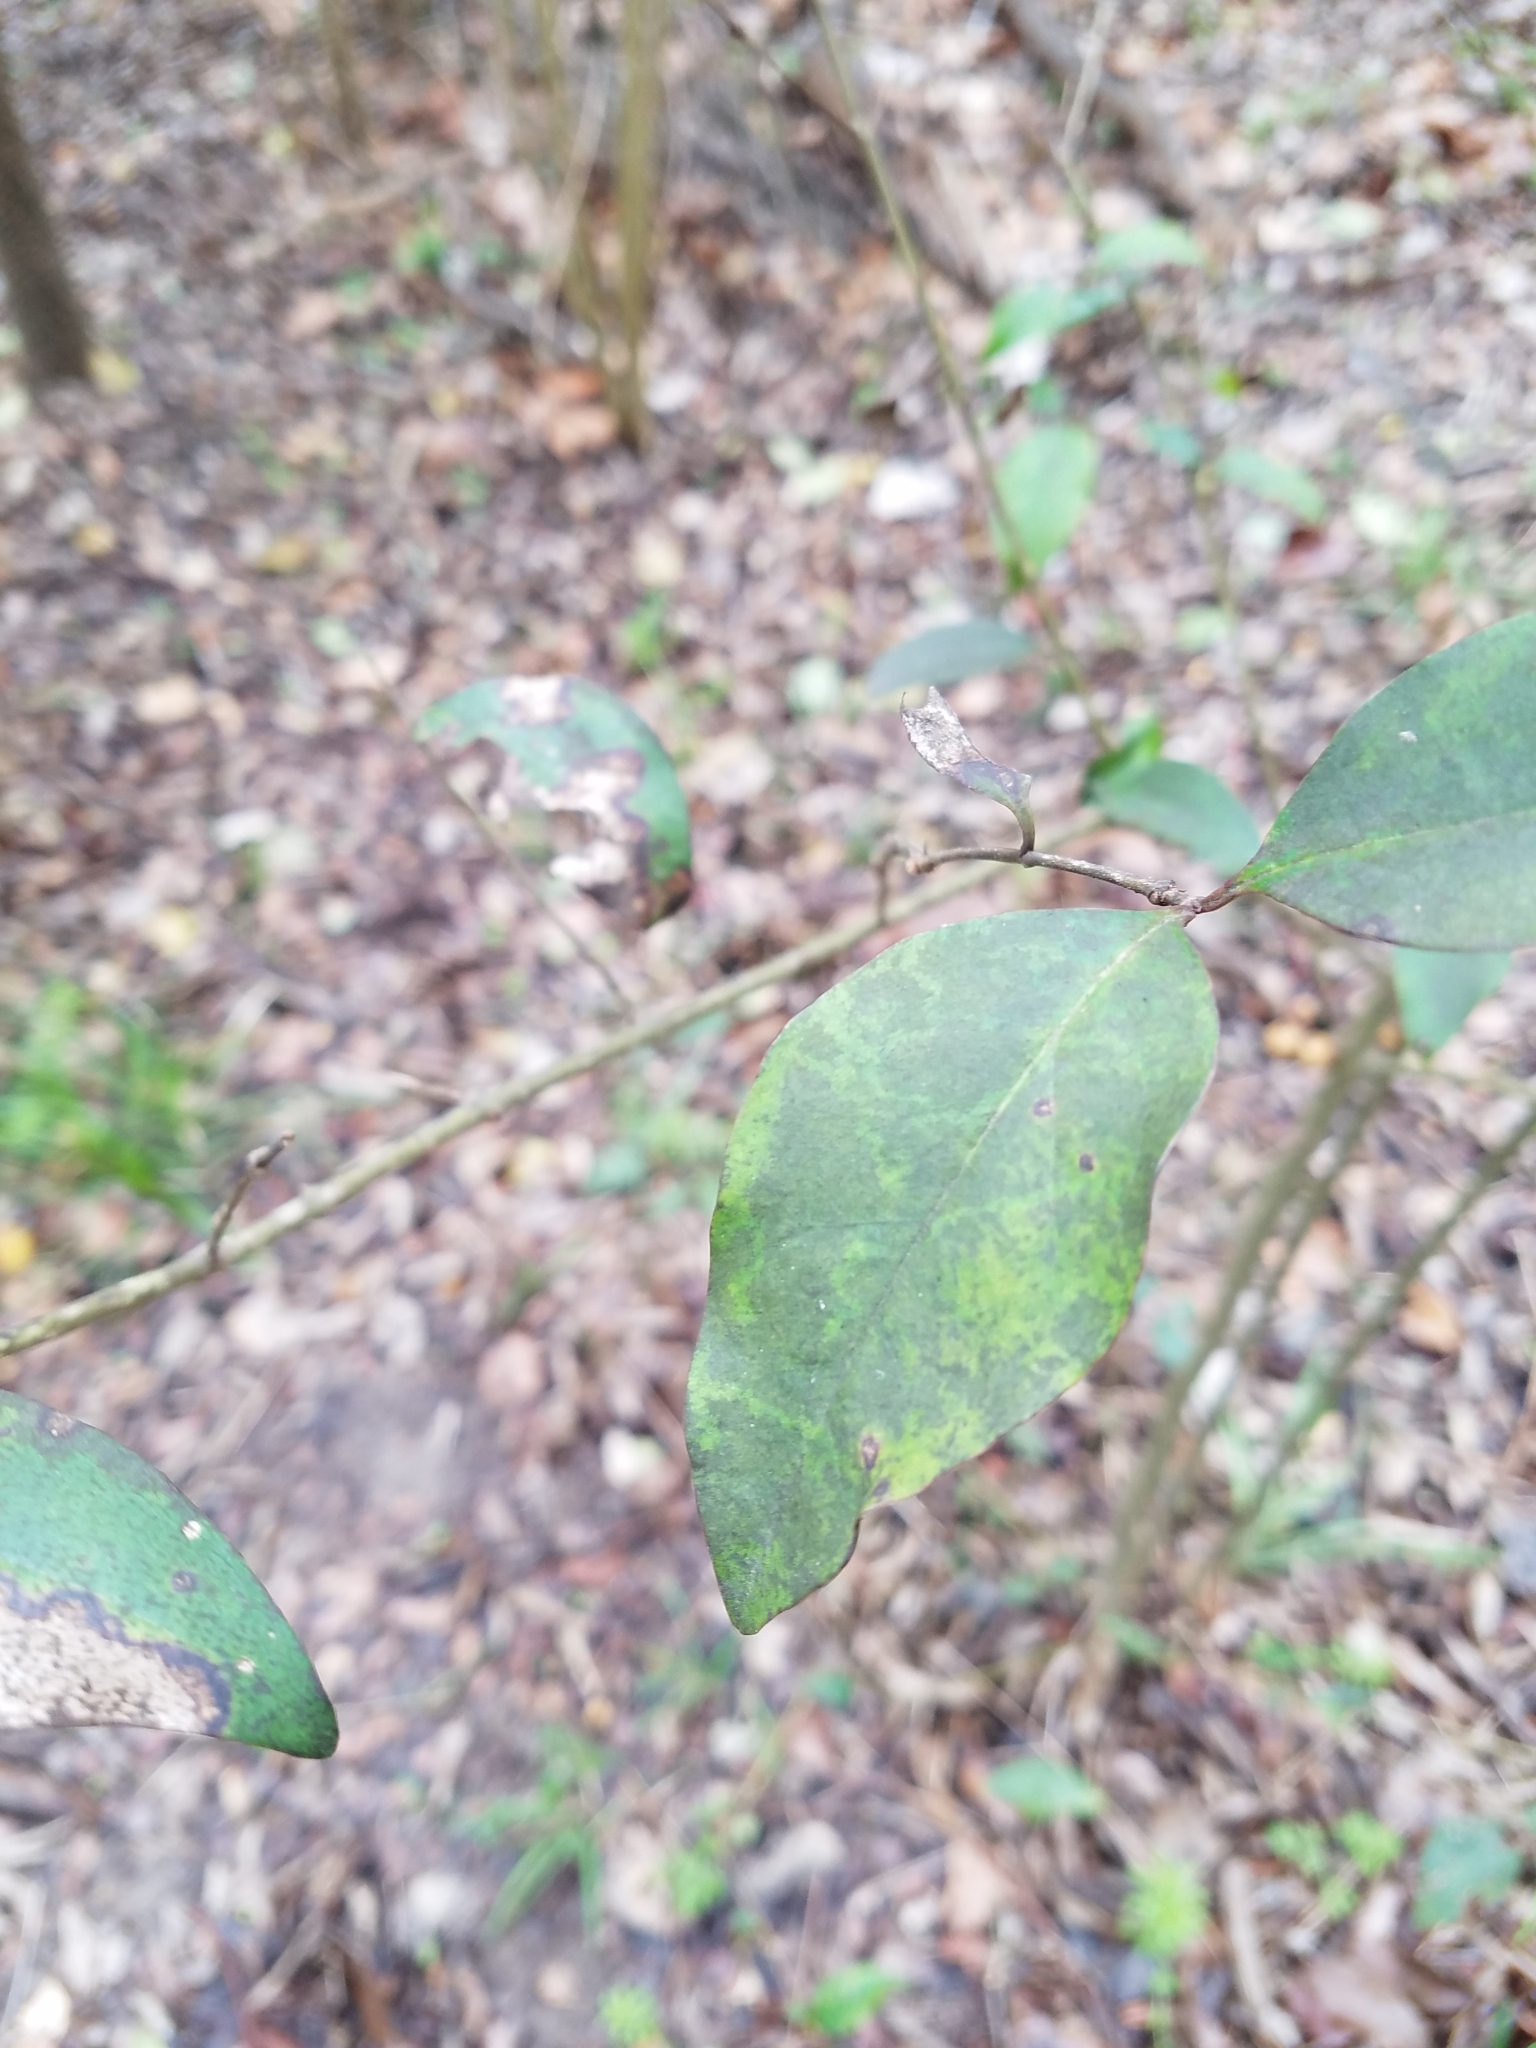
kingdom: Plantae
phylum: Tracheophyta
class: Magnoliopsida
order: Sapindales
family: Meliaceae
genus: Melia
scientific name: Melia azedarach
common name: Chinaberrytree
